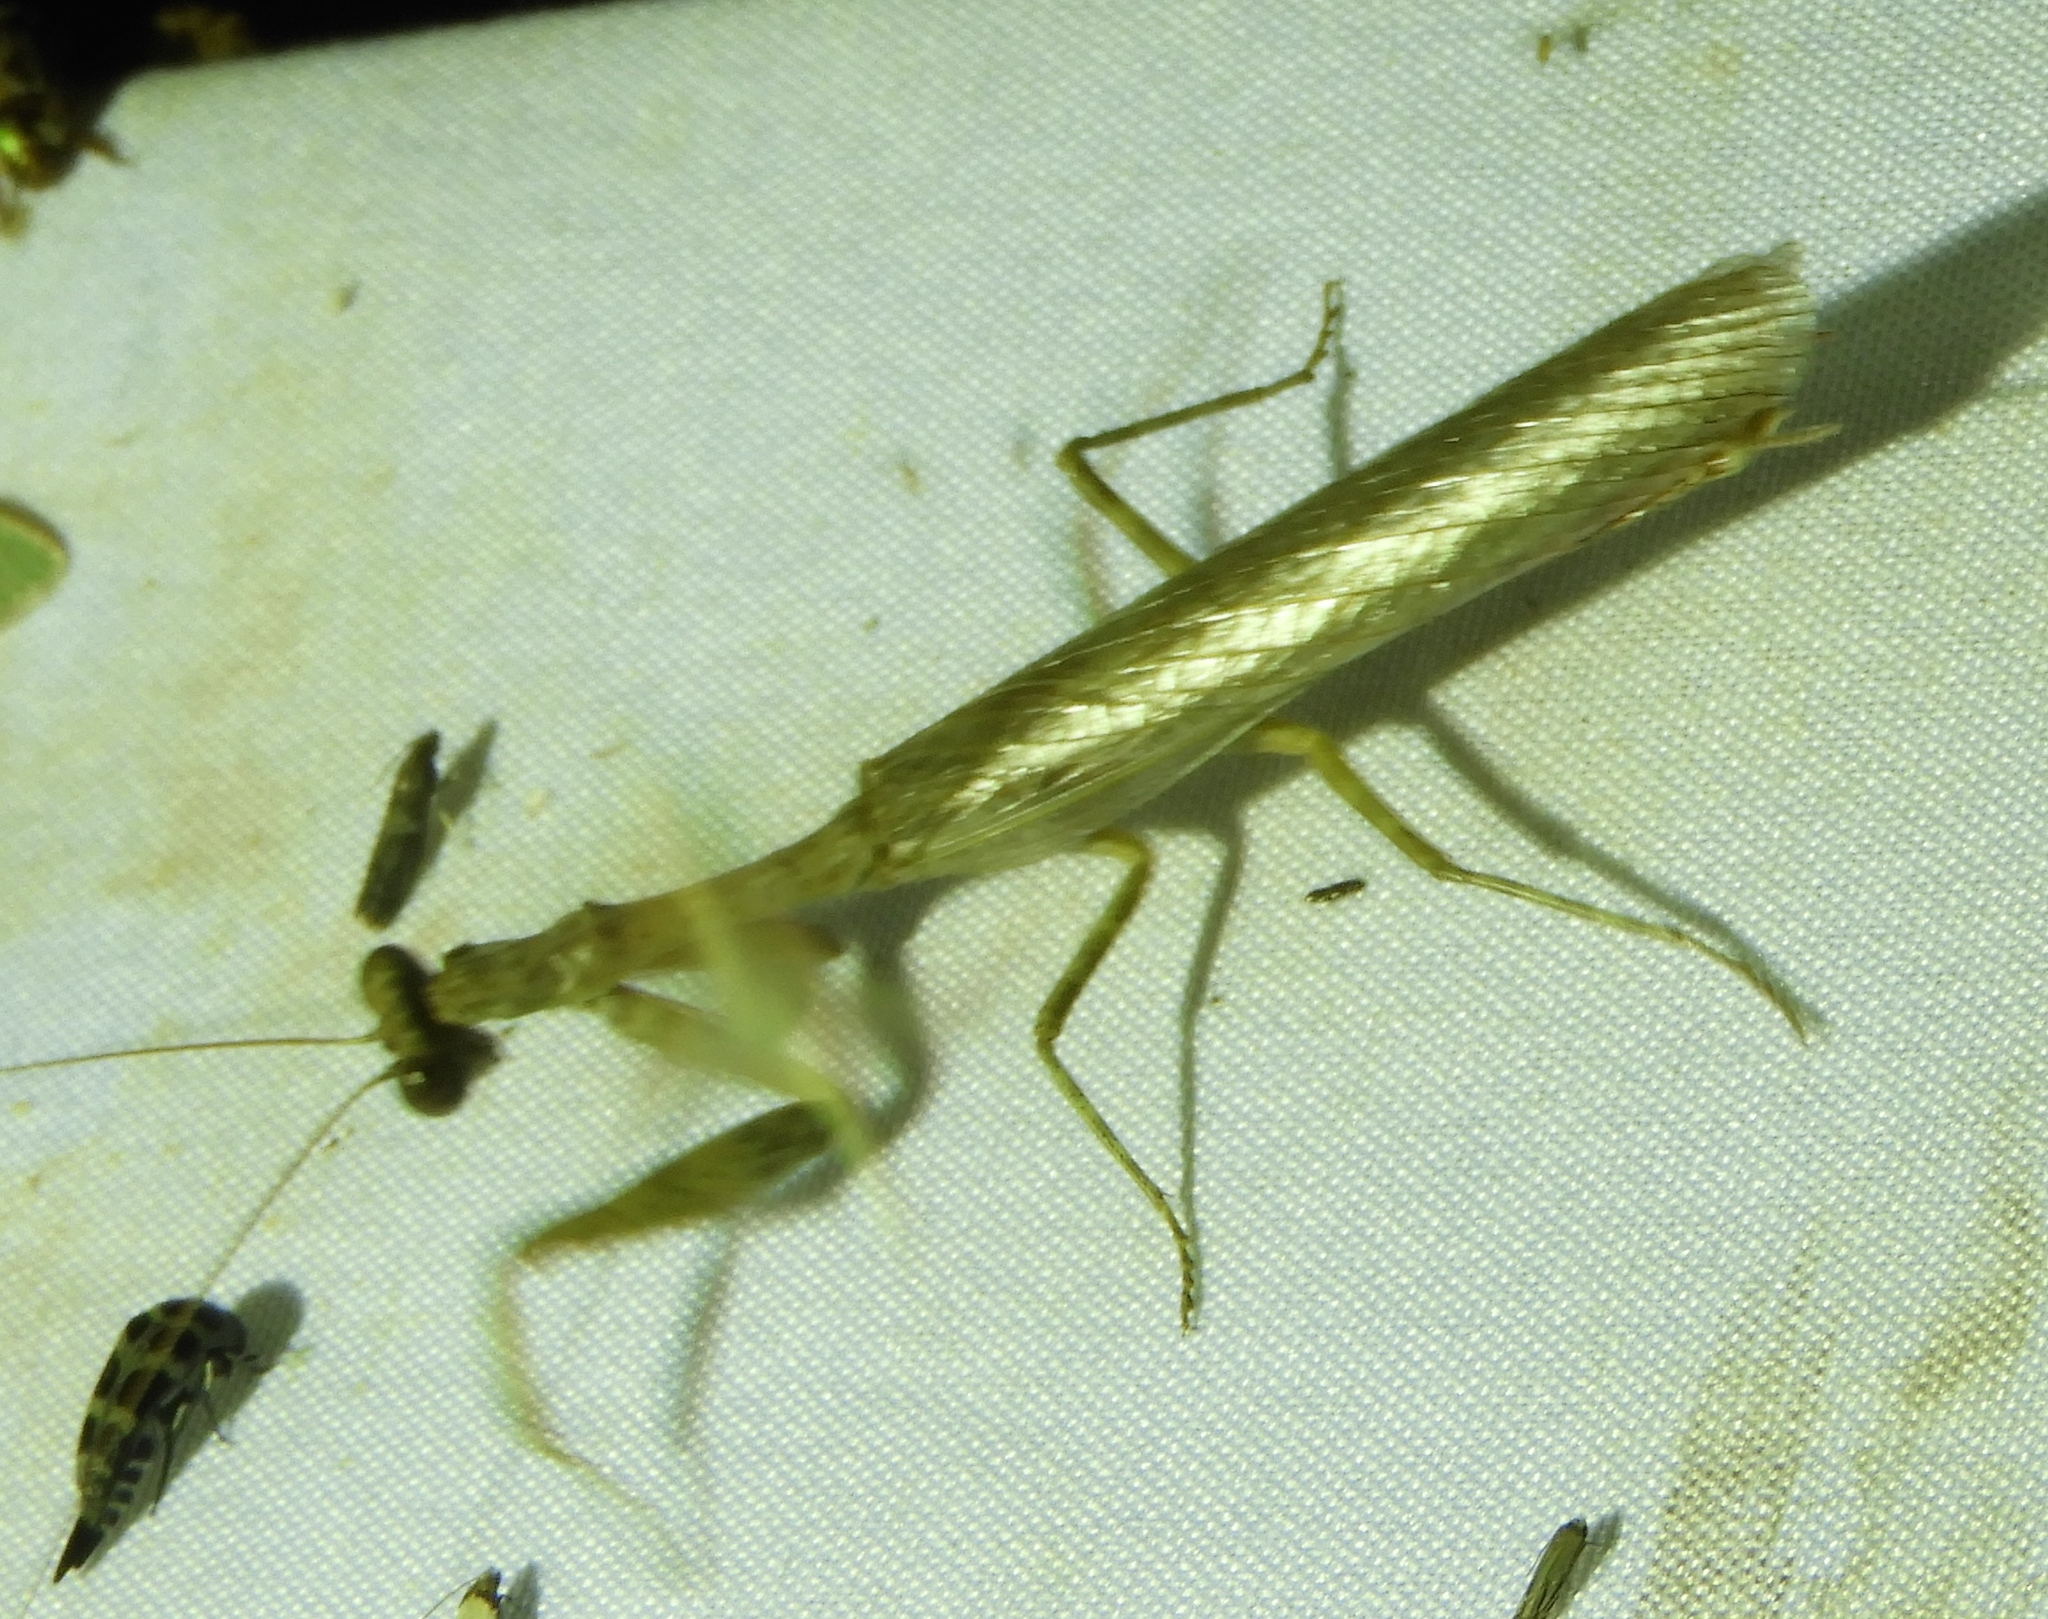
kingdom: Animalia
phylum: Arthropoda
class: Insecta
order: Mantodea
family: Mantidae
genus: Melliera
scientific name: Melliera chorotega
